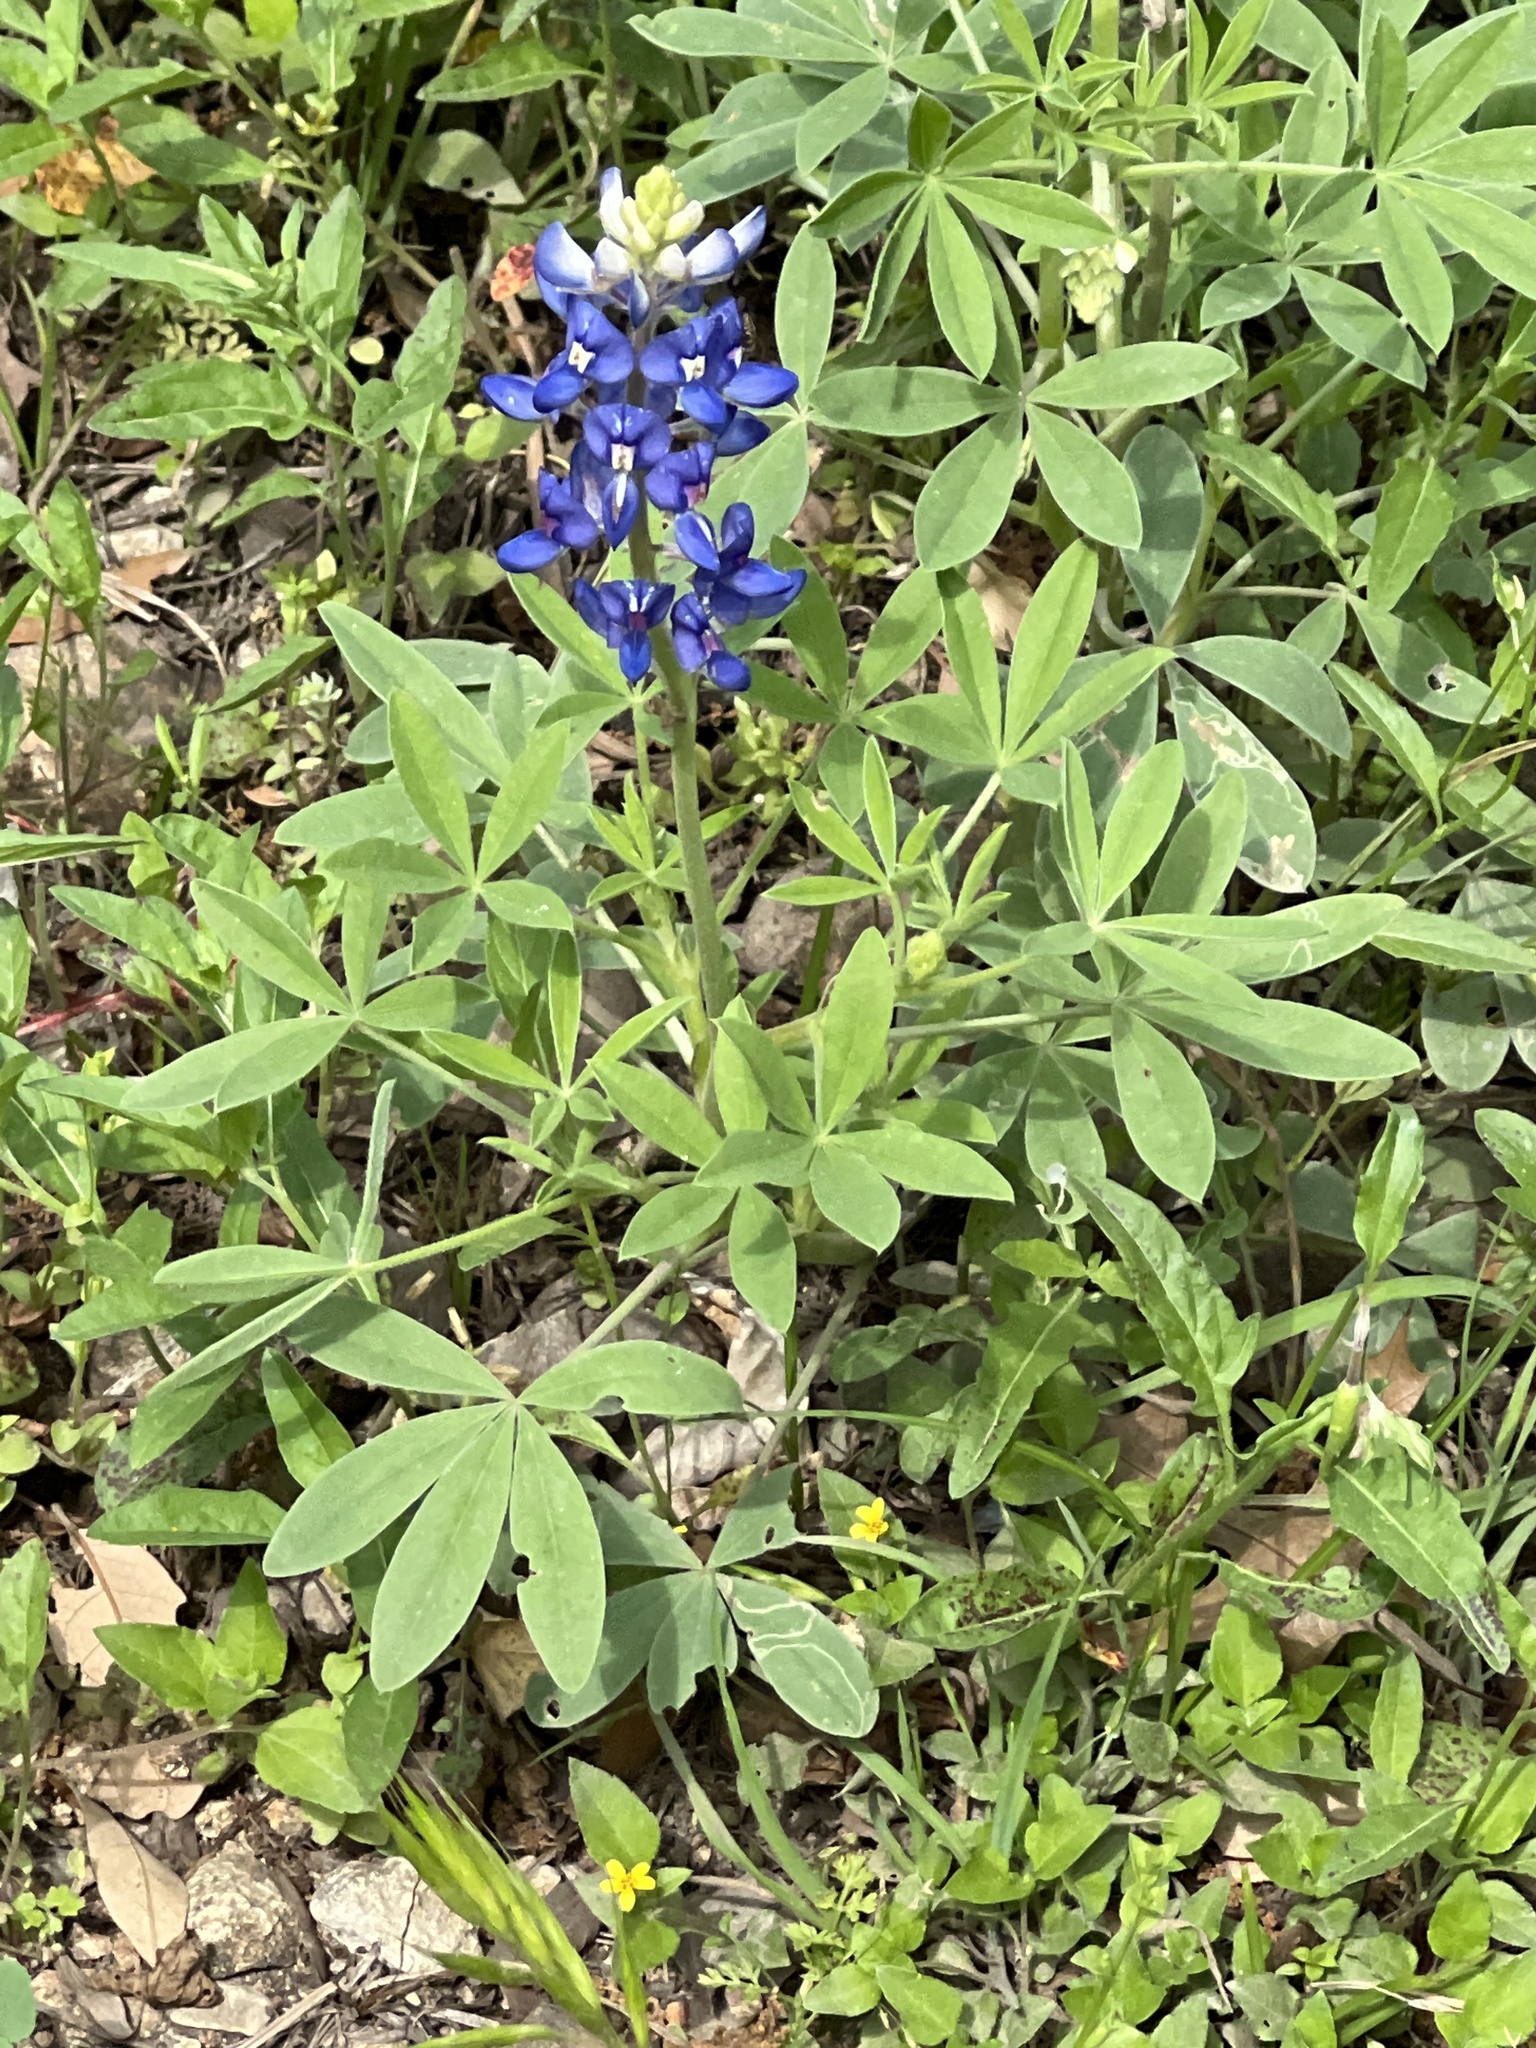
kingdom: Plantae
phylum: Tracheophyta
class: Magnoliopsida
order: Fabales
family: Fabaceae
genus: Lupinus
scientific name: Lupinus texensis
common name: Texas bluebonnet
